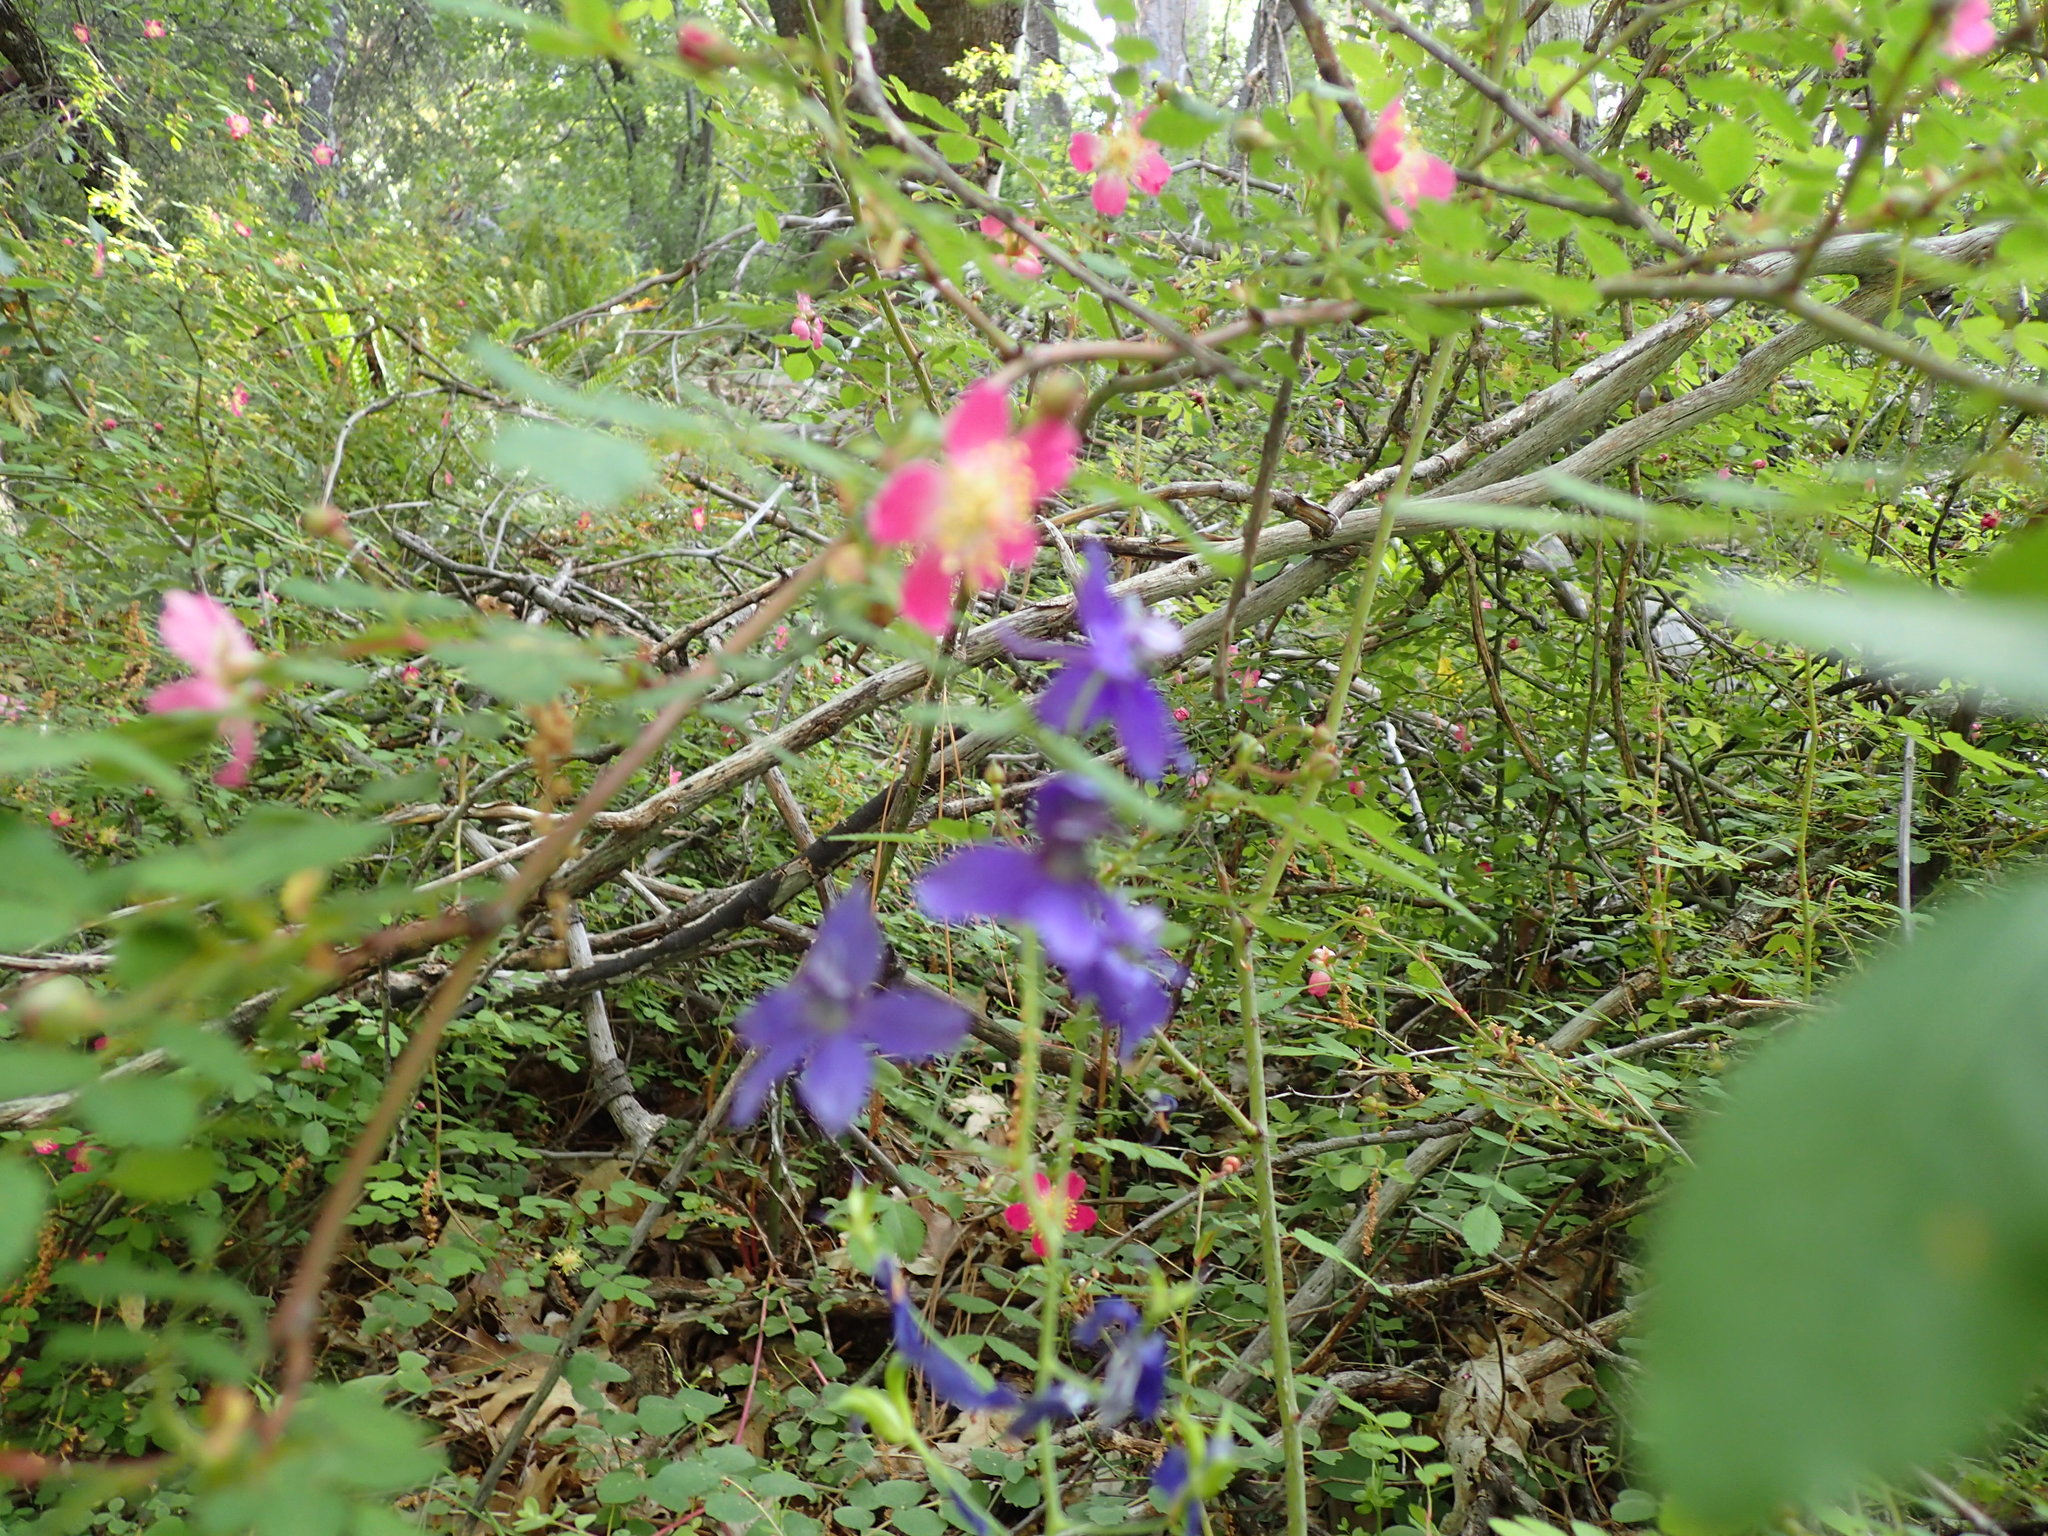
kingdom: Plantae
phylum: Tracheophyta
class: Magnoliopsida
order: Rosales
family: Rosaceae
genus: Rosa
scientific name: Rosa gymnocarpa
